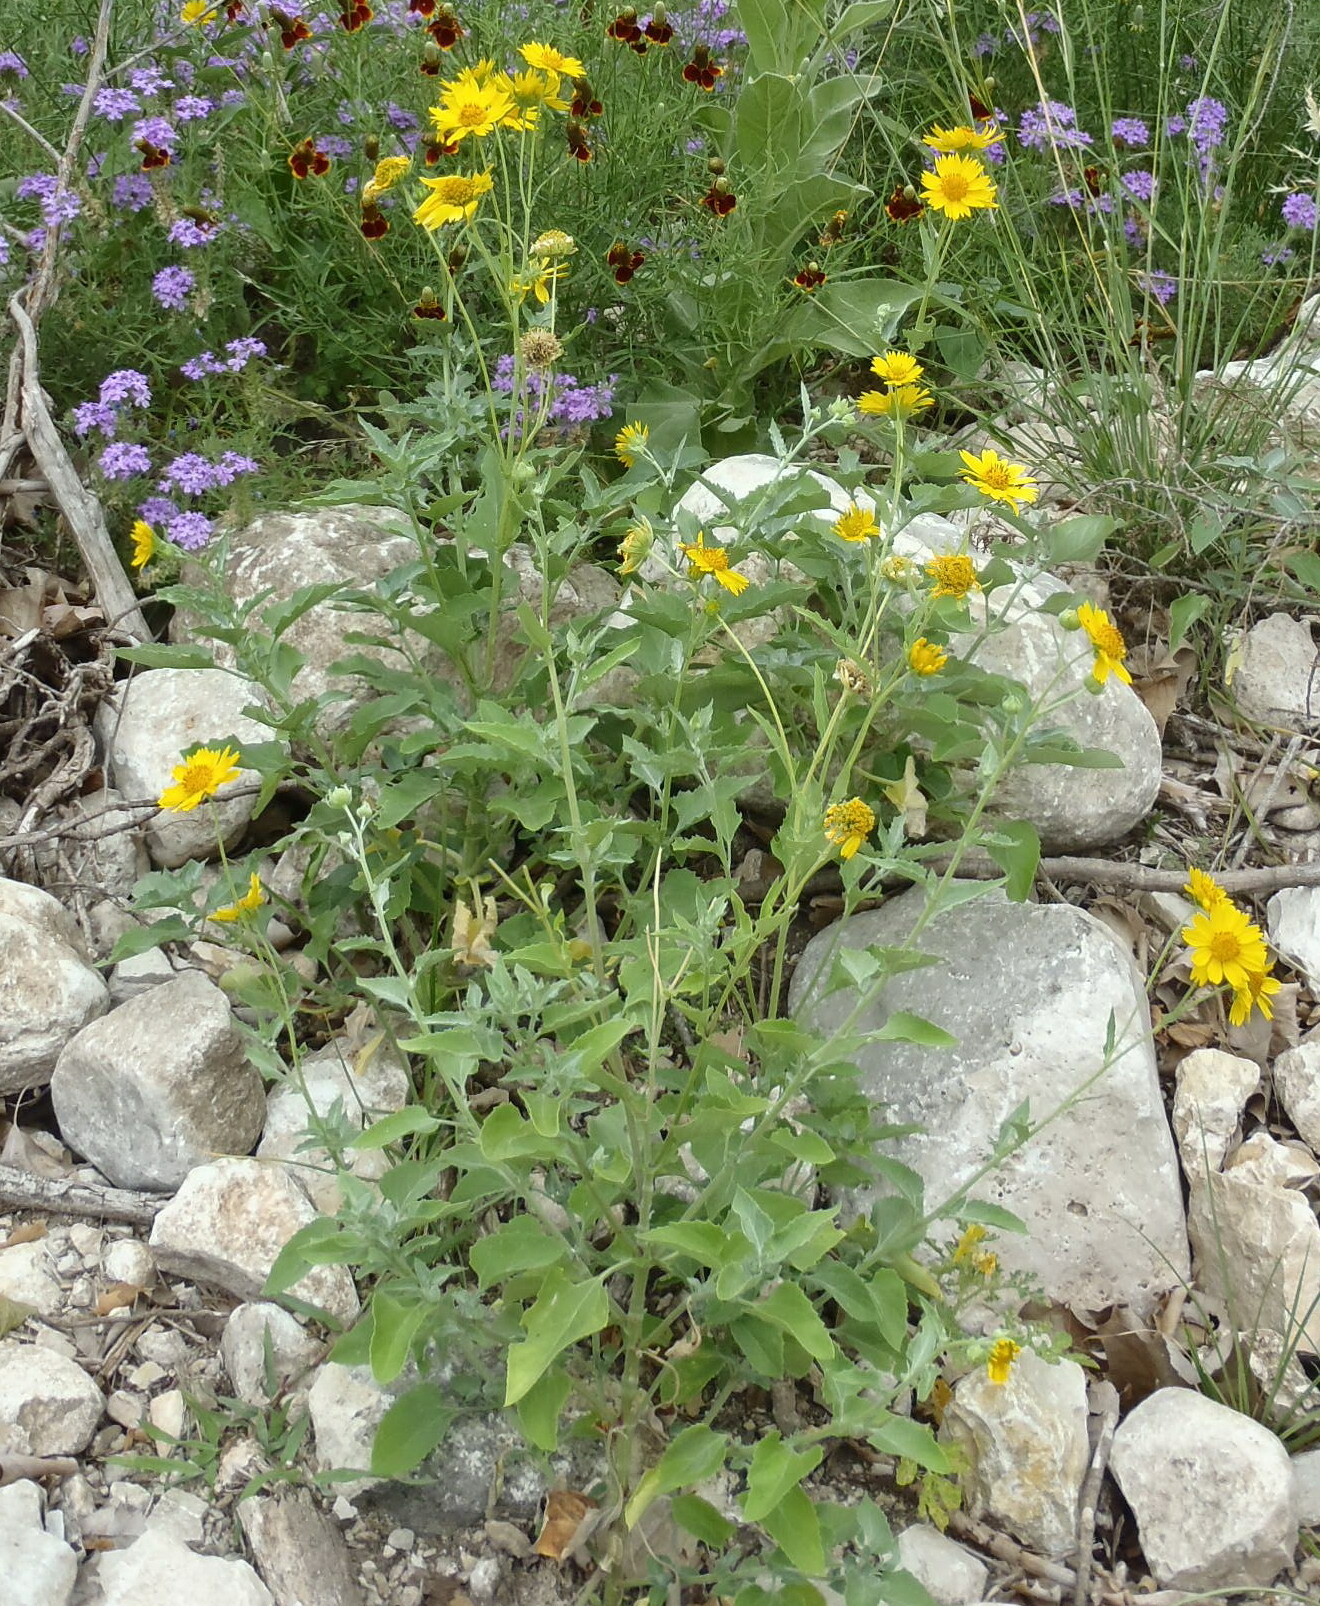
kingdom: Plantae
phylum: Tracheophyta
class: Magnoliopsida
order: Asterales
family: Asteraceae
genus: Verbesina
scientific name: Verbesina encelioides
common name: Golden crownbeard
